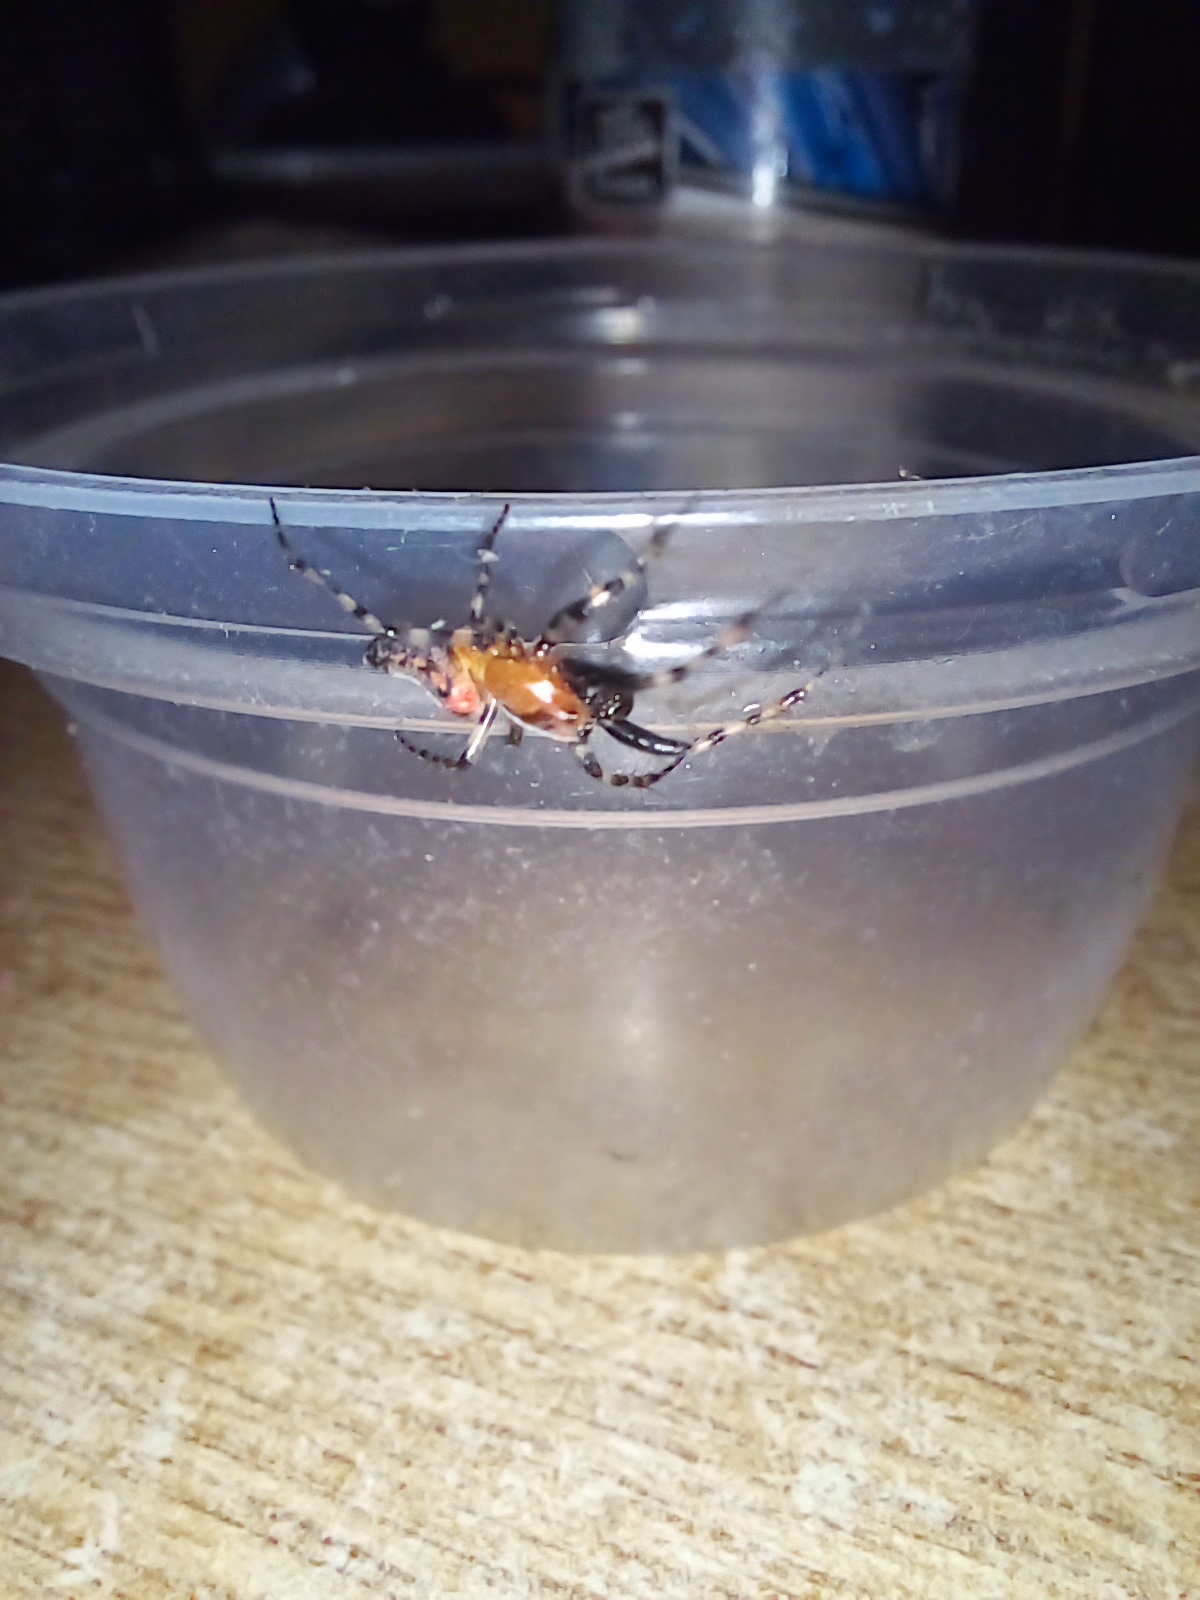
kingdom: Animalia
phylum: Arthropoda
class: Arachnida
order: Araneae
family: Araneidae
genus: Alpaida
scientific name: Alpaida gallardoi
